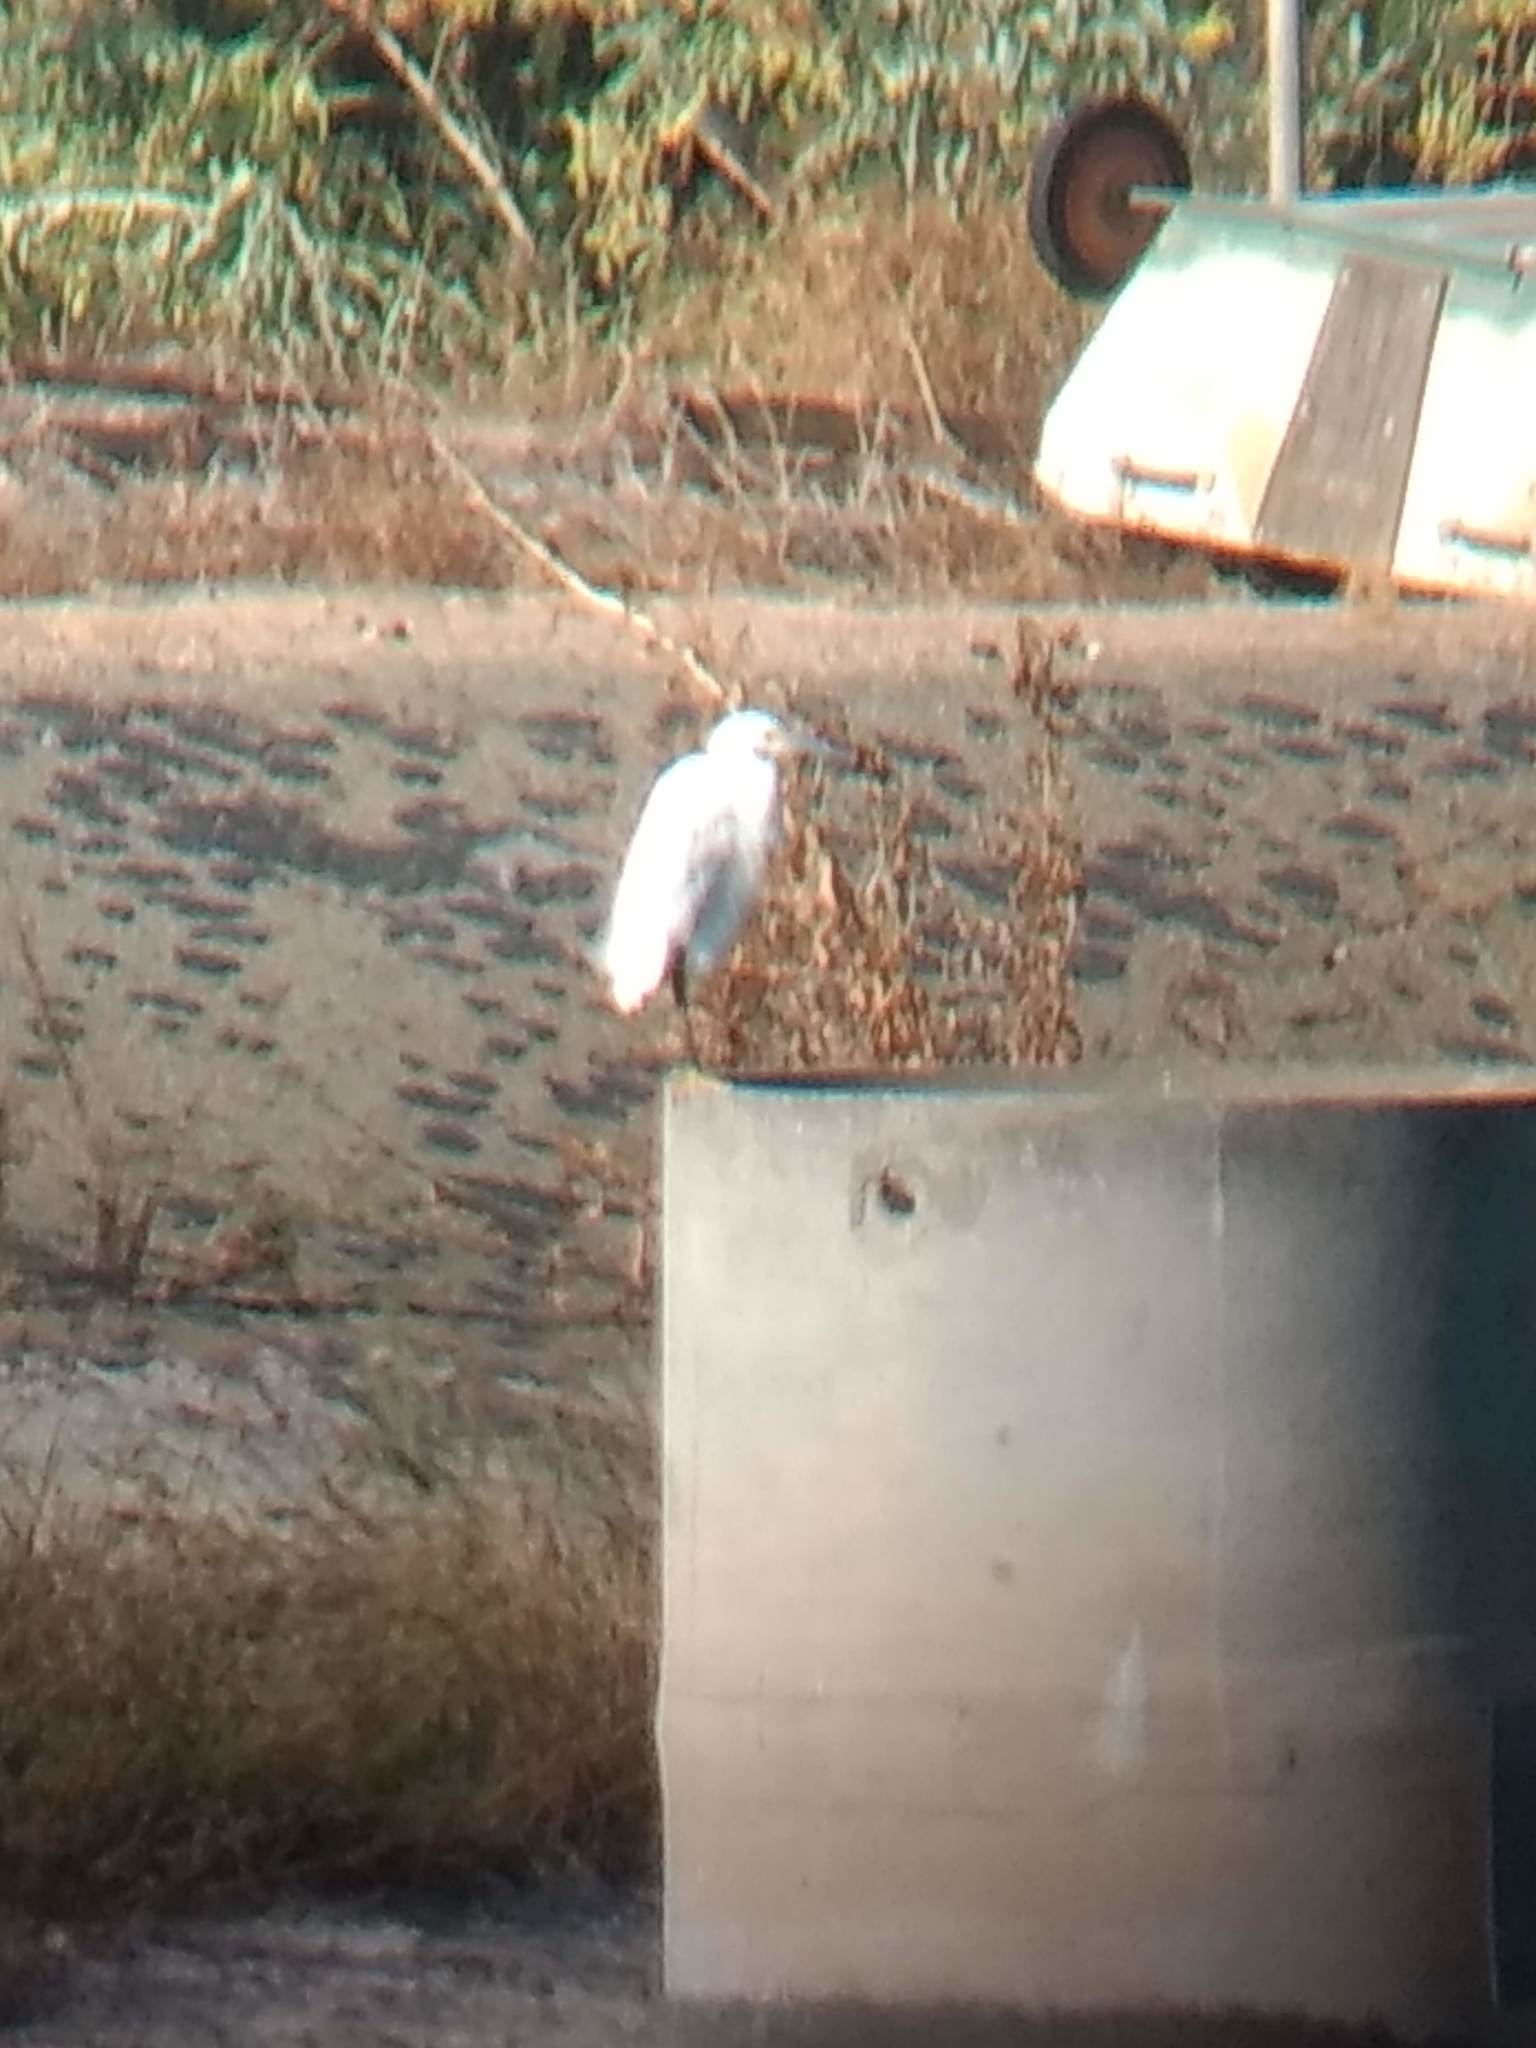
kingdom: Animalia
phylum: Chordata
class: Aves
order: Pelecaniformes
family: Ardeidae
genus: Egretta
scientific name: Egretta thula
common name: Snowy egret
